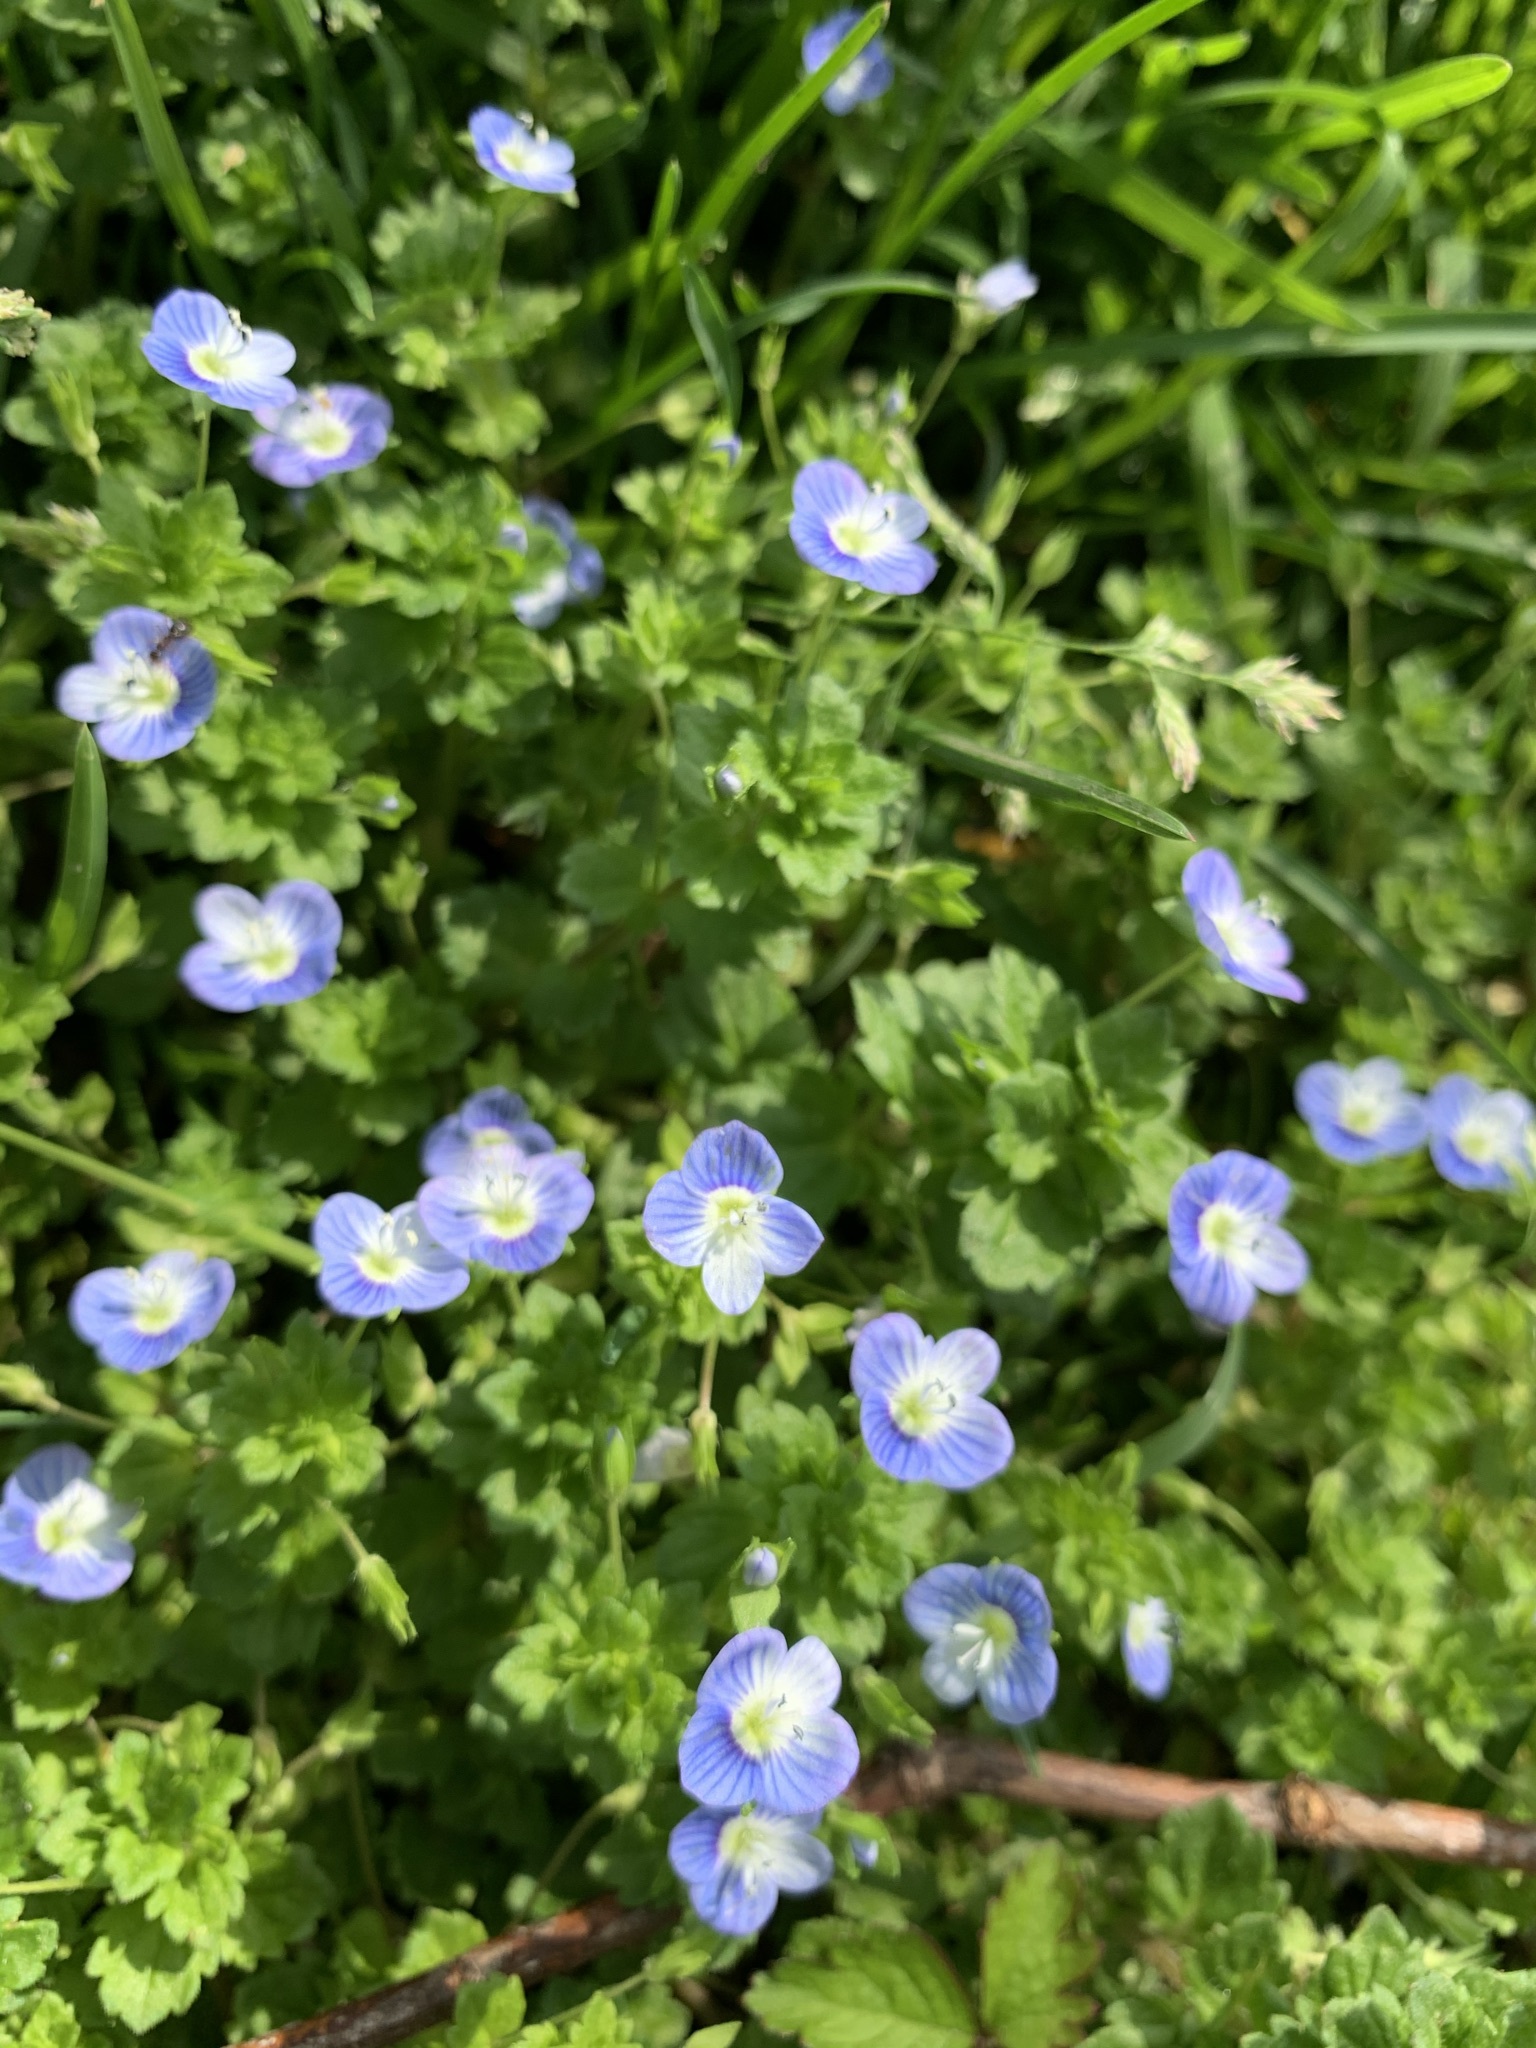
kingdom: Plantae
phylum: Tracheophyta
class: Magnoliopsida
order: Lamiales
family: Plantaginaceae
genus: Veronica
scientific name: Veronica persica
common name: Common field-speedwell
